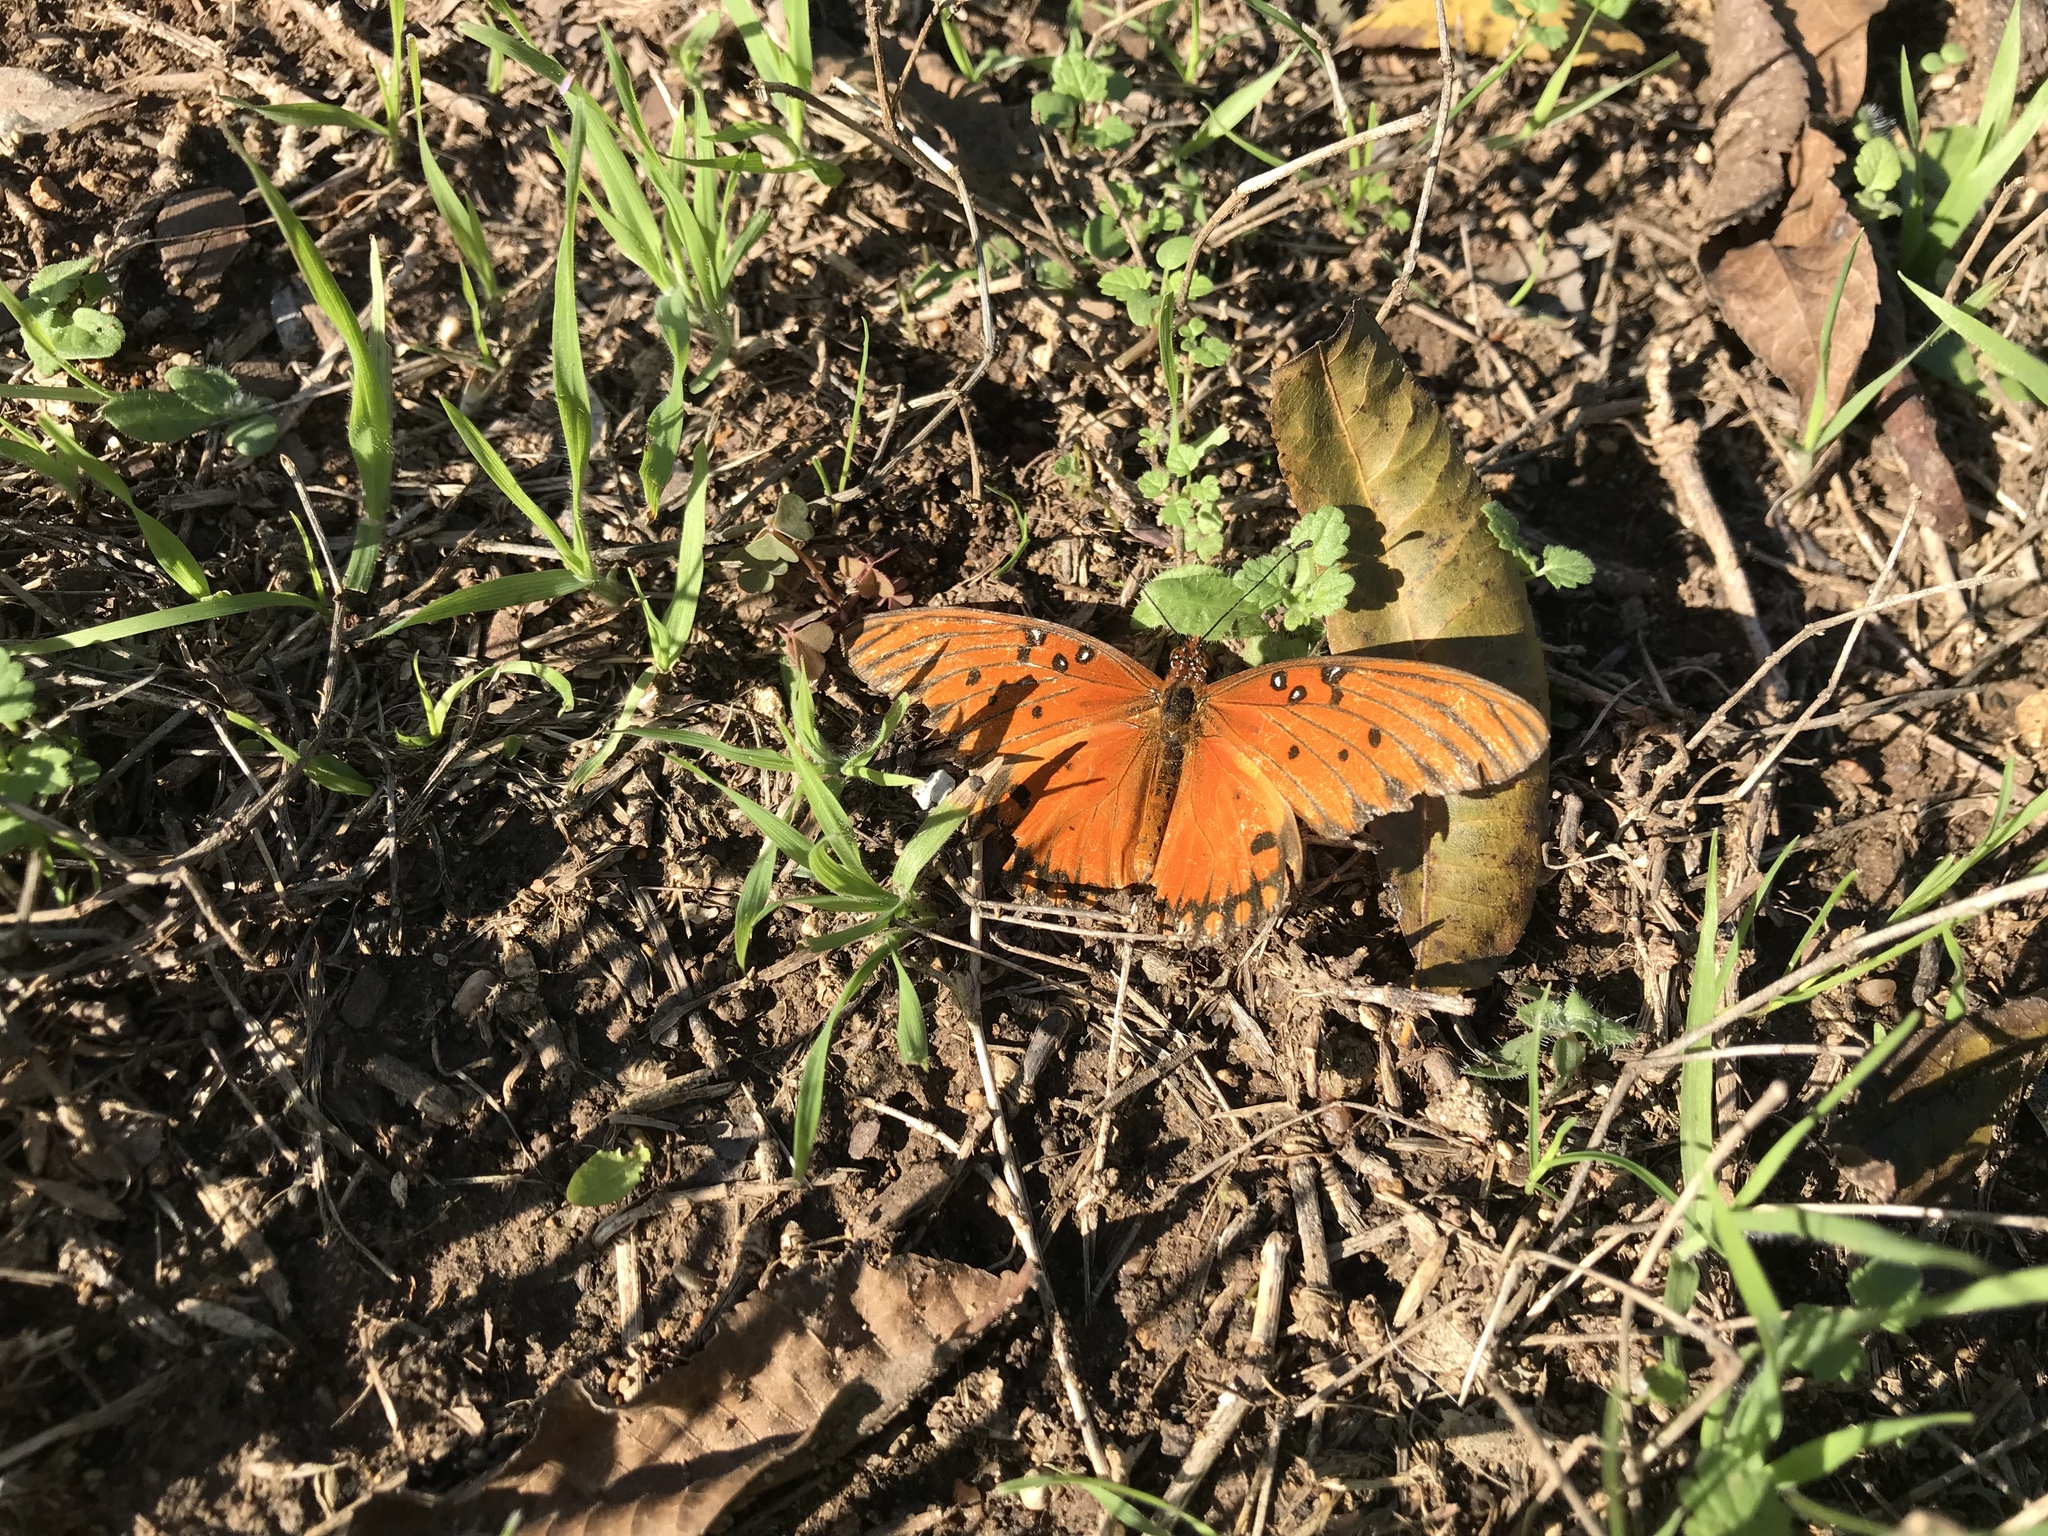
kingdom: Animalia
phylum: Arthropoda
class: Insecta
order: Lepidoptera
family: Nymphalidae
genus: Dione
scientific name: Dione vanillae
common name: Gulf fritillary
